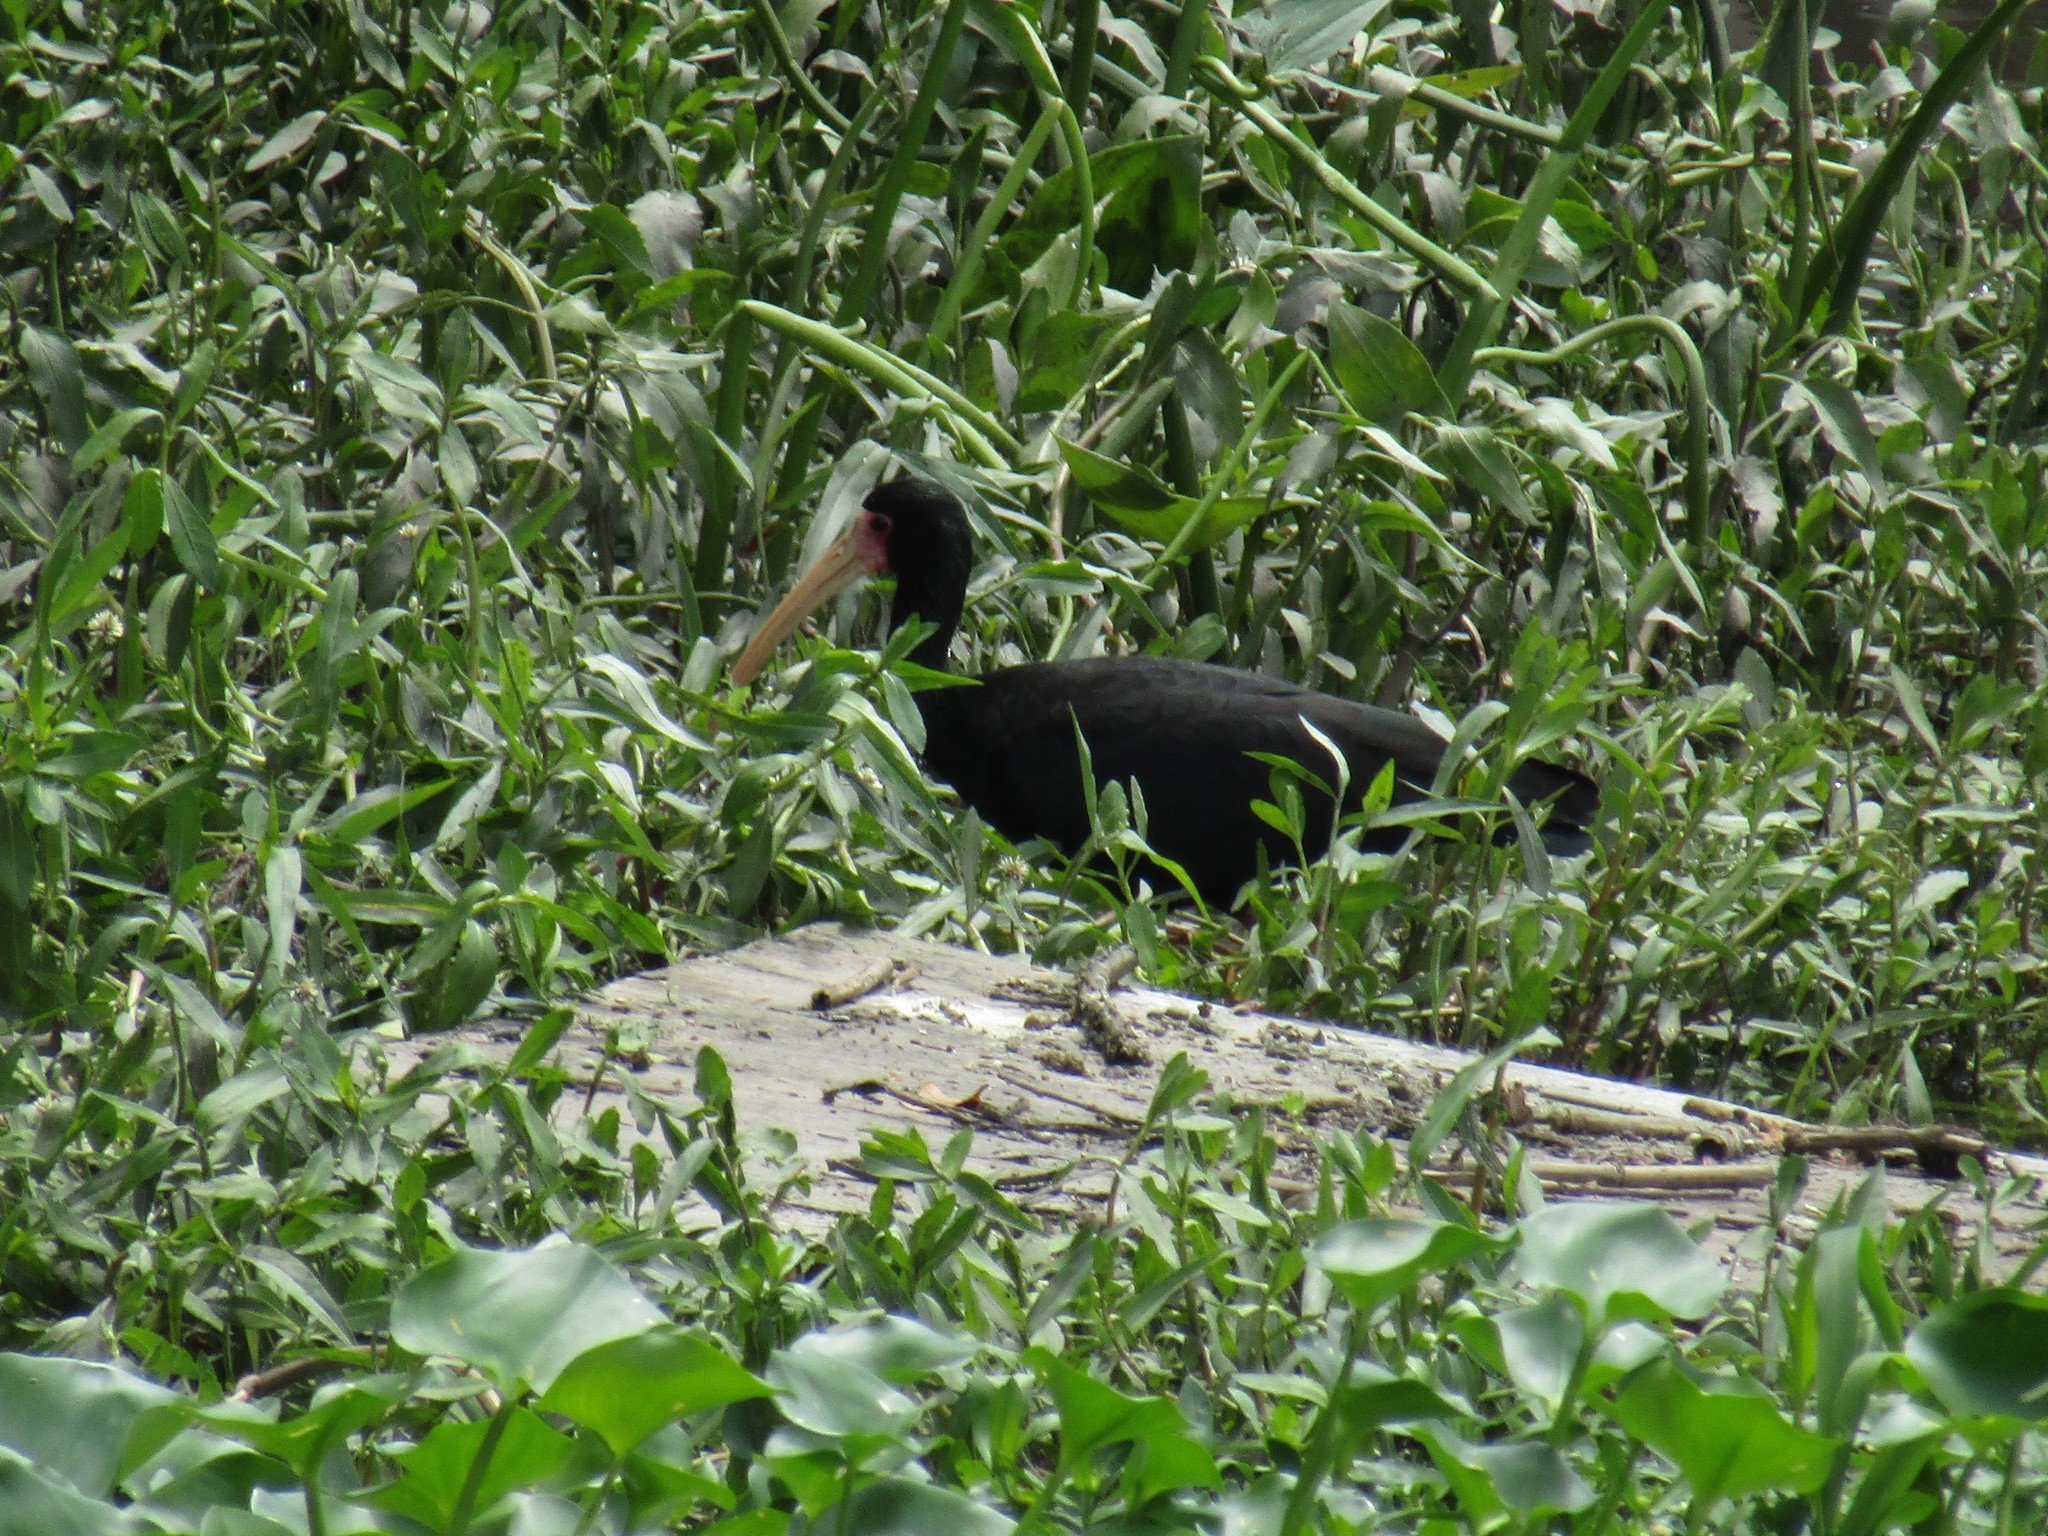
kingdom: Animalia
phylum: Chordata
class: Aves
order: Pelecaniformes
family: Threskiornithidae
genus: Phimosus
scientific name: Phimosus infuscatus
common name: Bare-faced ibis
